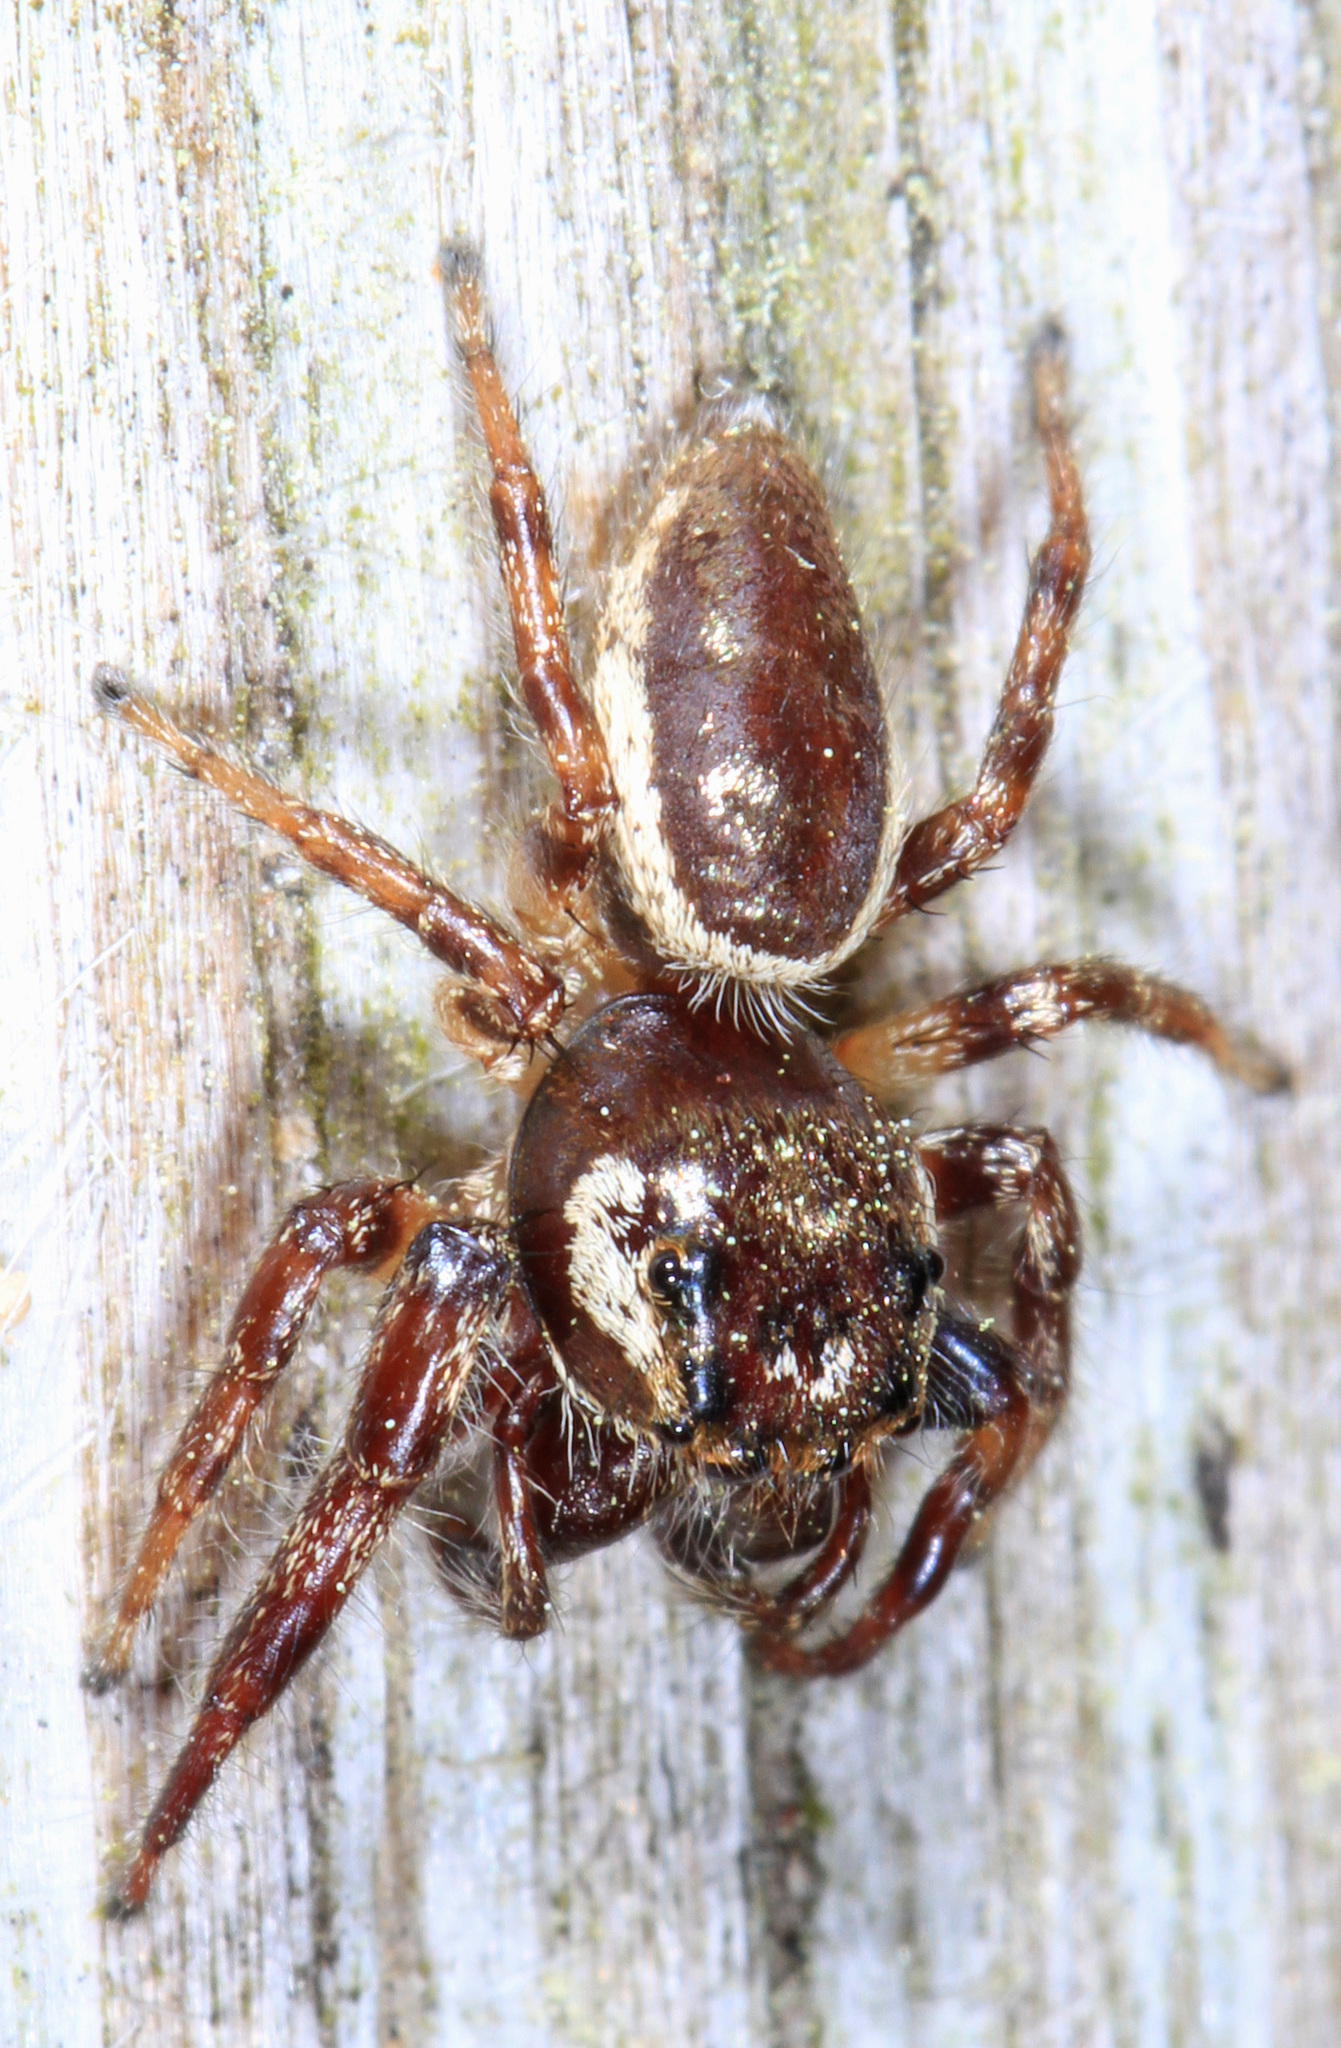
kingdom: Animalia
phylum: Arthropoda
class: Arachnida
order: Araneae
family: Salticidae
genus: Eris
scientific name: Eris militaris
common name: Bronze jumper
